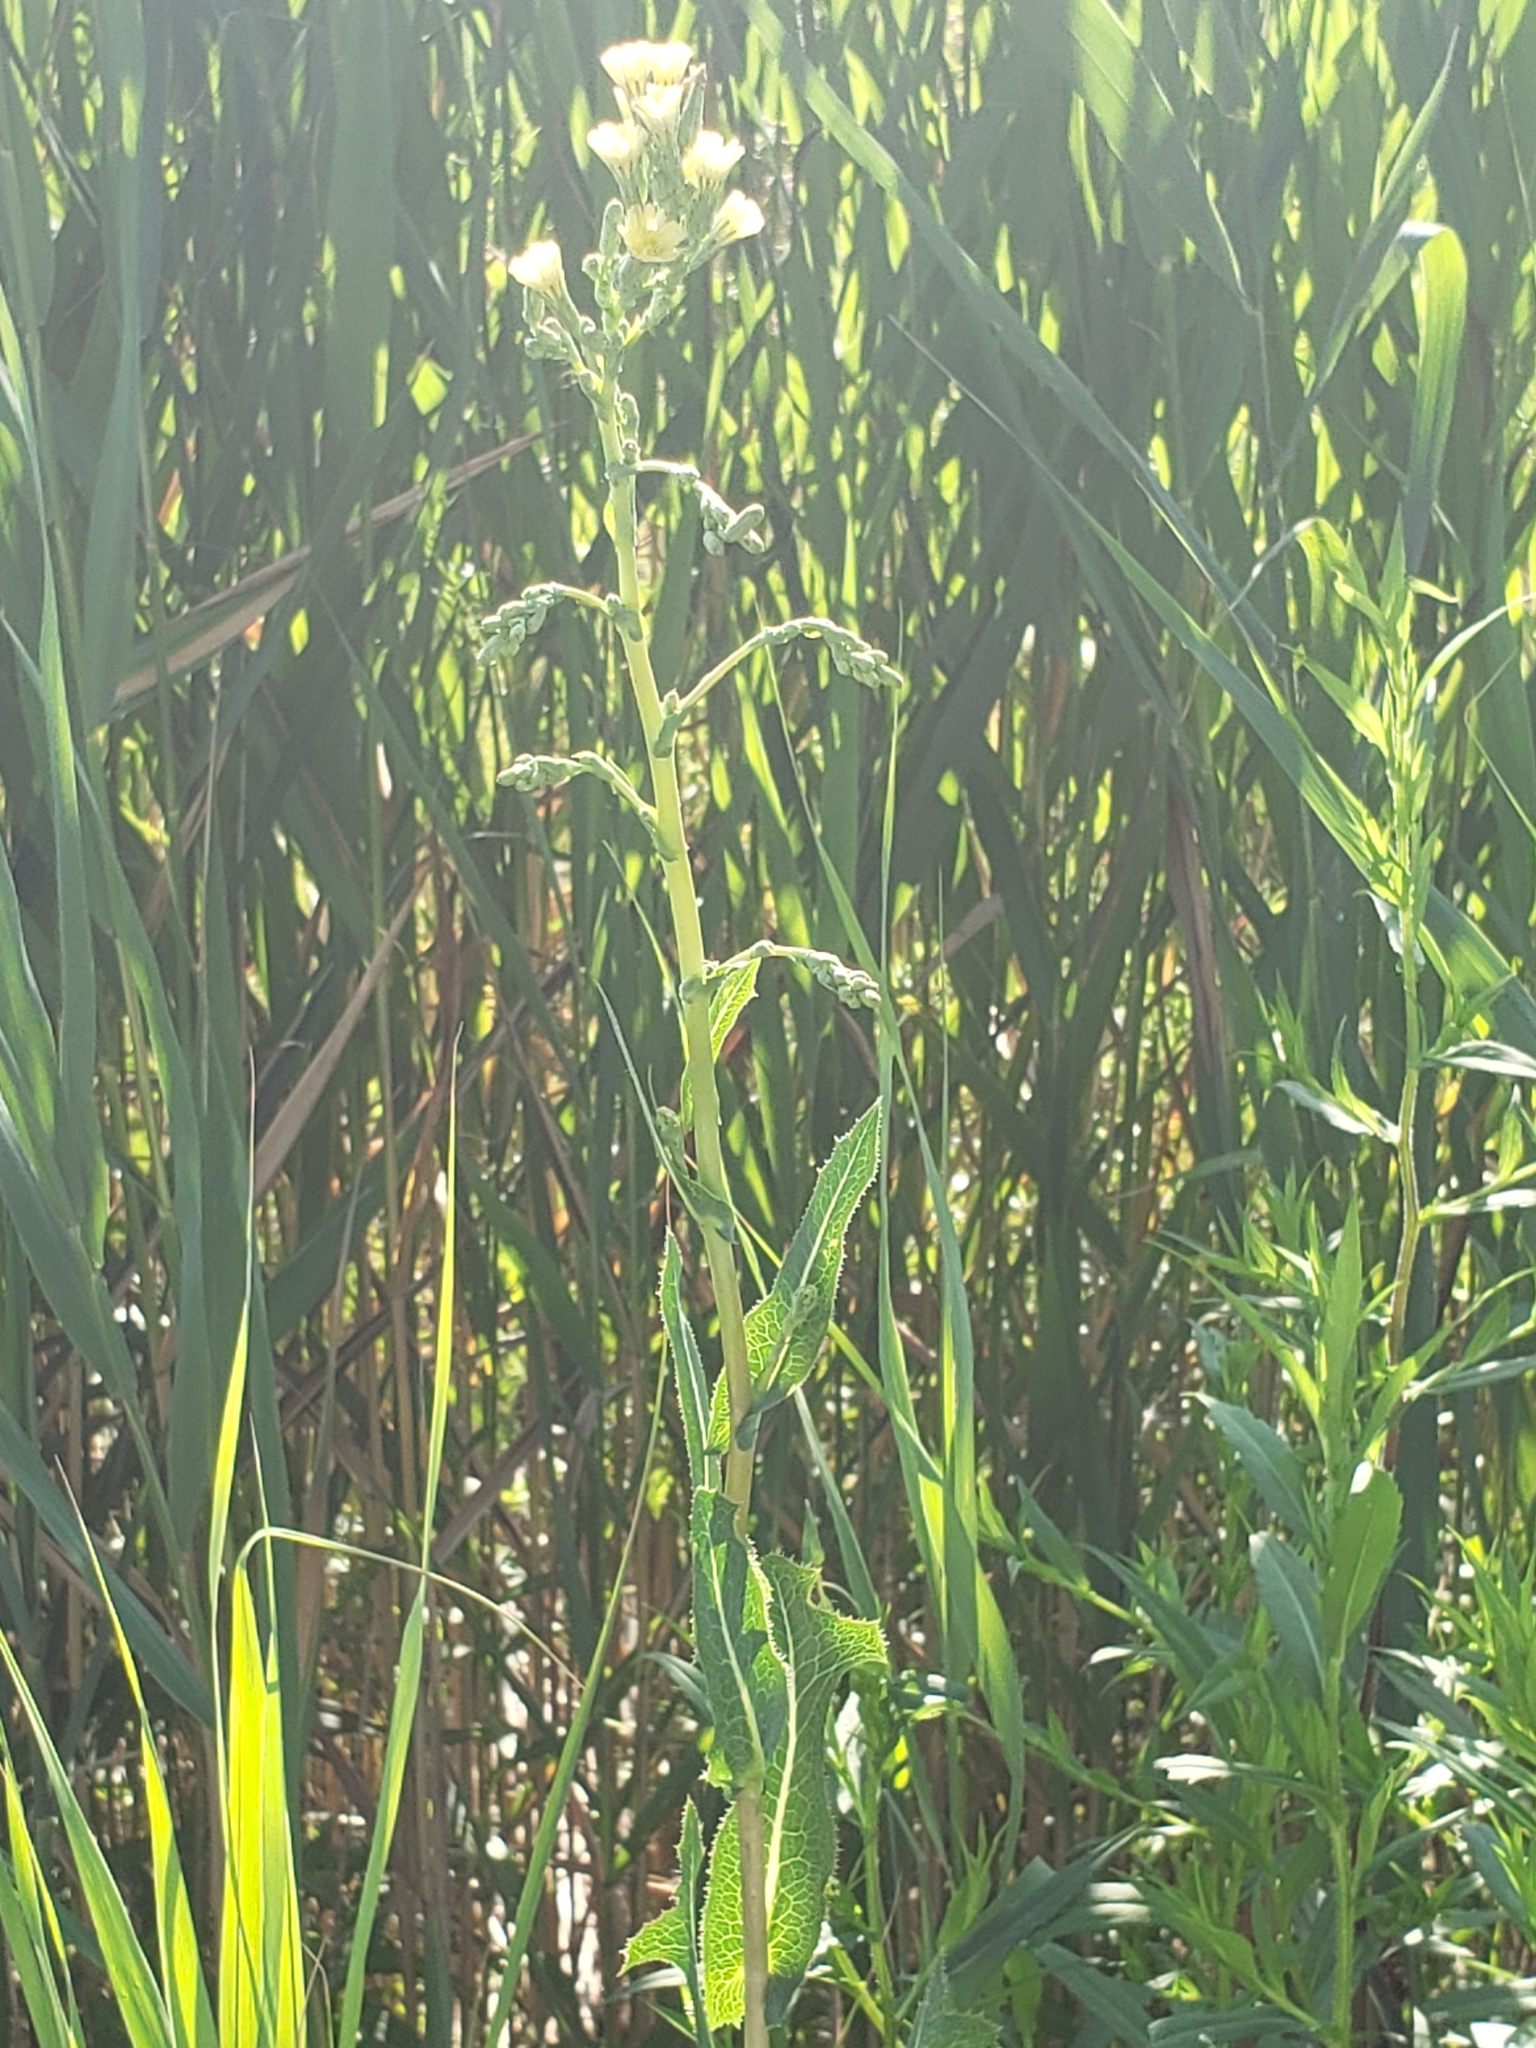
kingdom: Plantae
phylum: Tracheophyta
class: Magnoliopsida
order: Asterales
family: Asteraceae
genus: Lactuca
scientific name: Lactuca serriola
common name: Prickly lettuce
